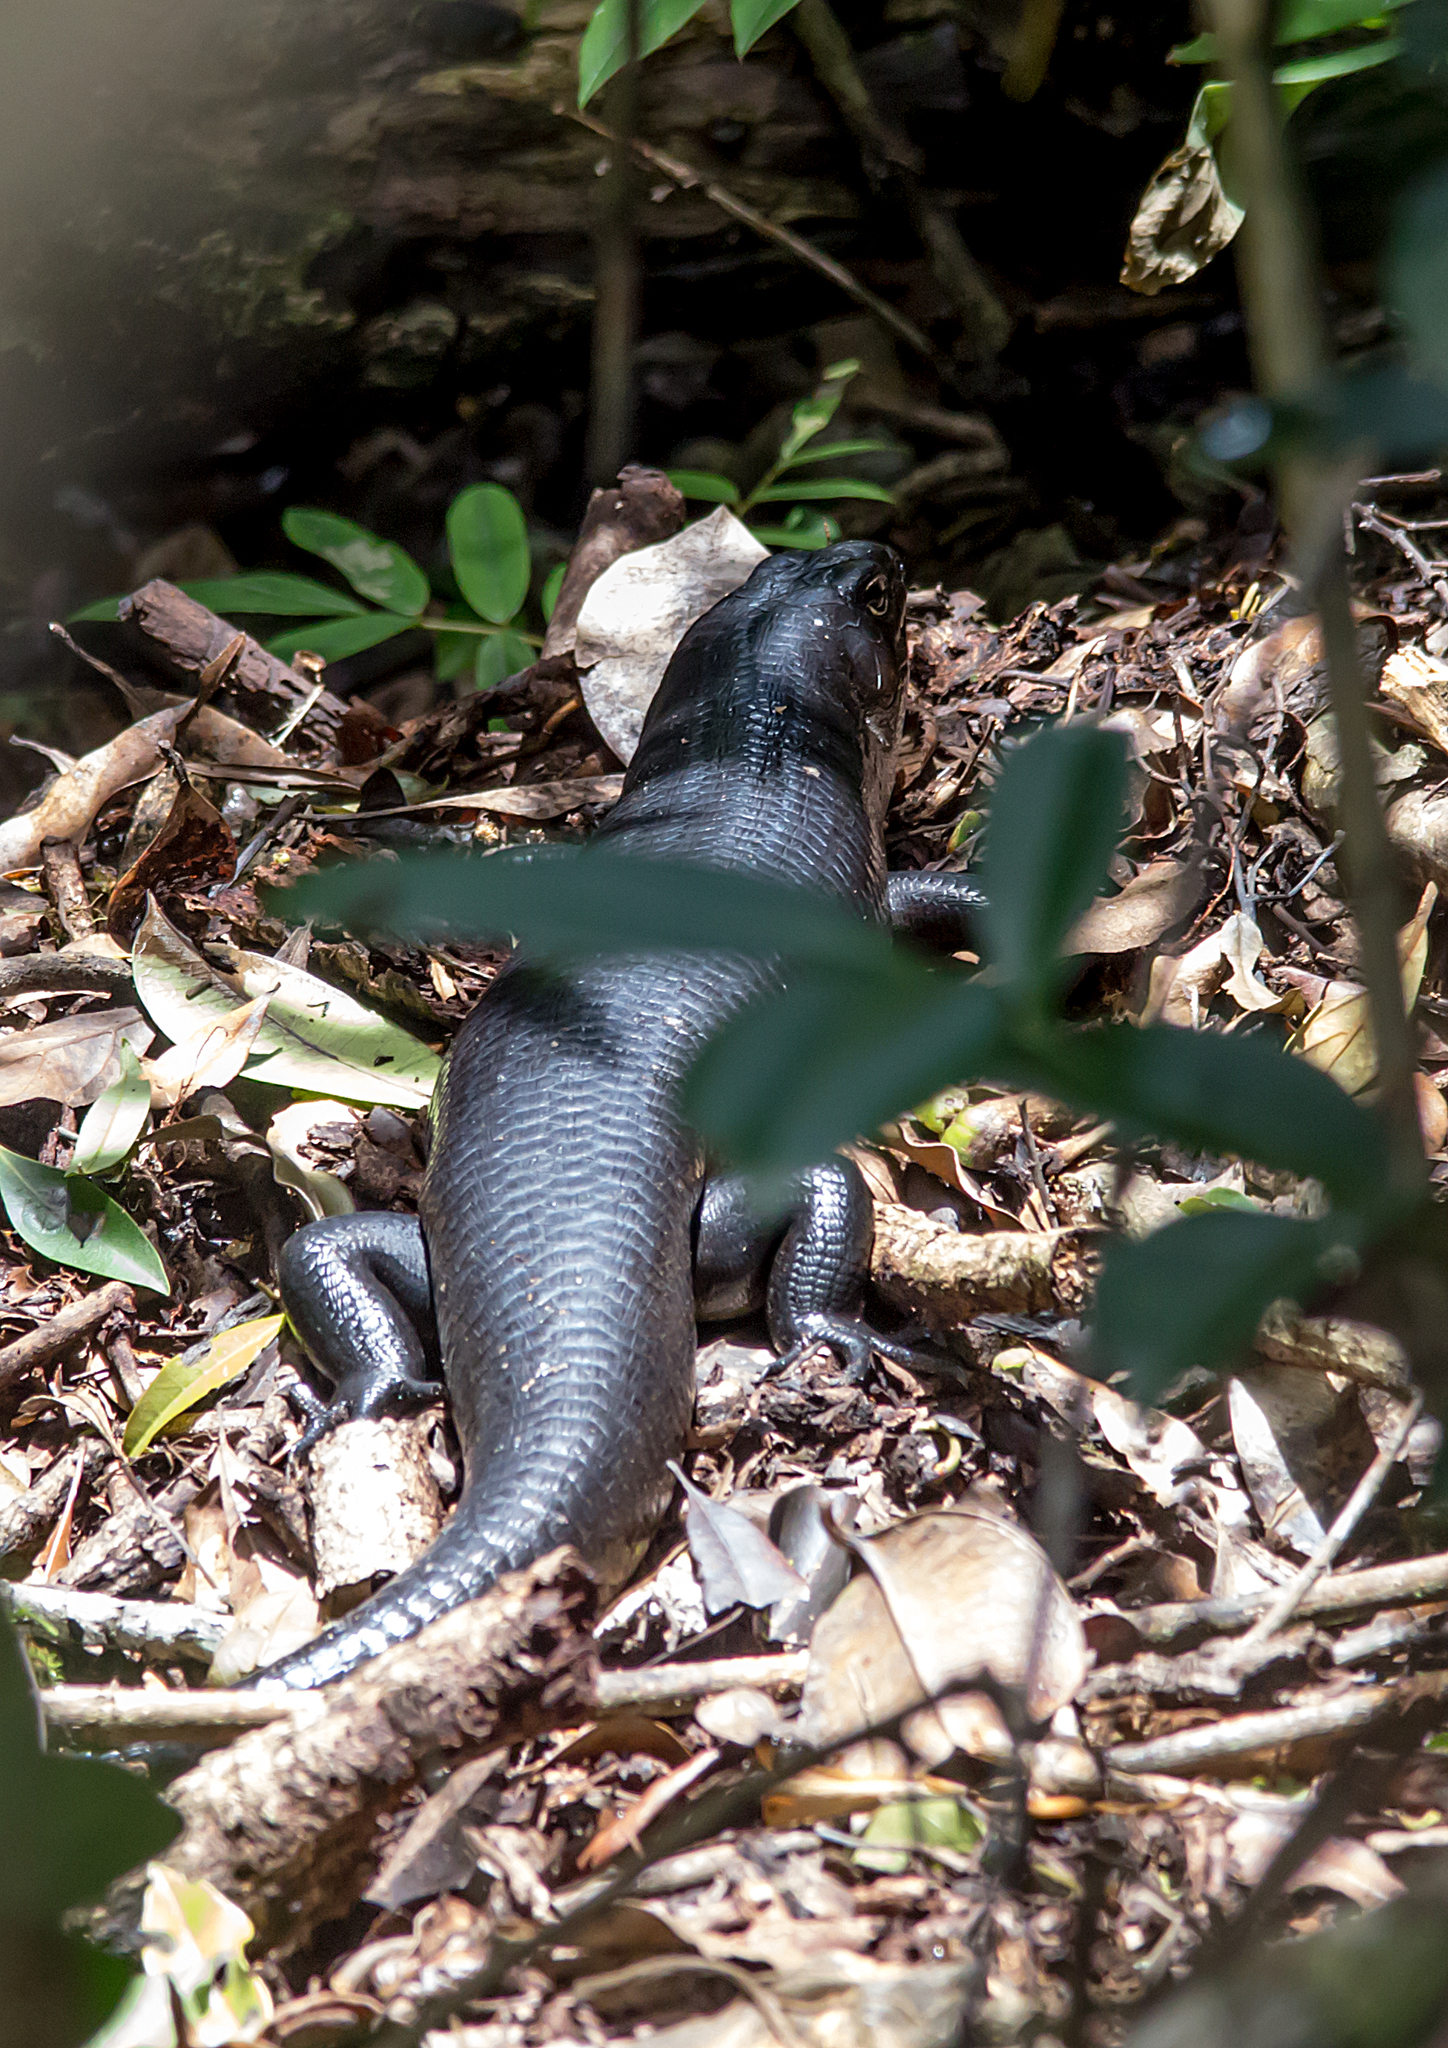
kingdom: Animalia
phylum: Chordata
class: Squamata
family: Scincidae
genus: Bellatorias
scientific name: Bellatorias major
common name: Land mullet
